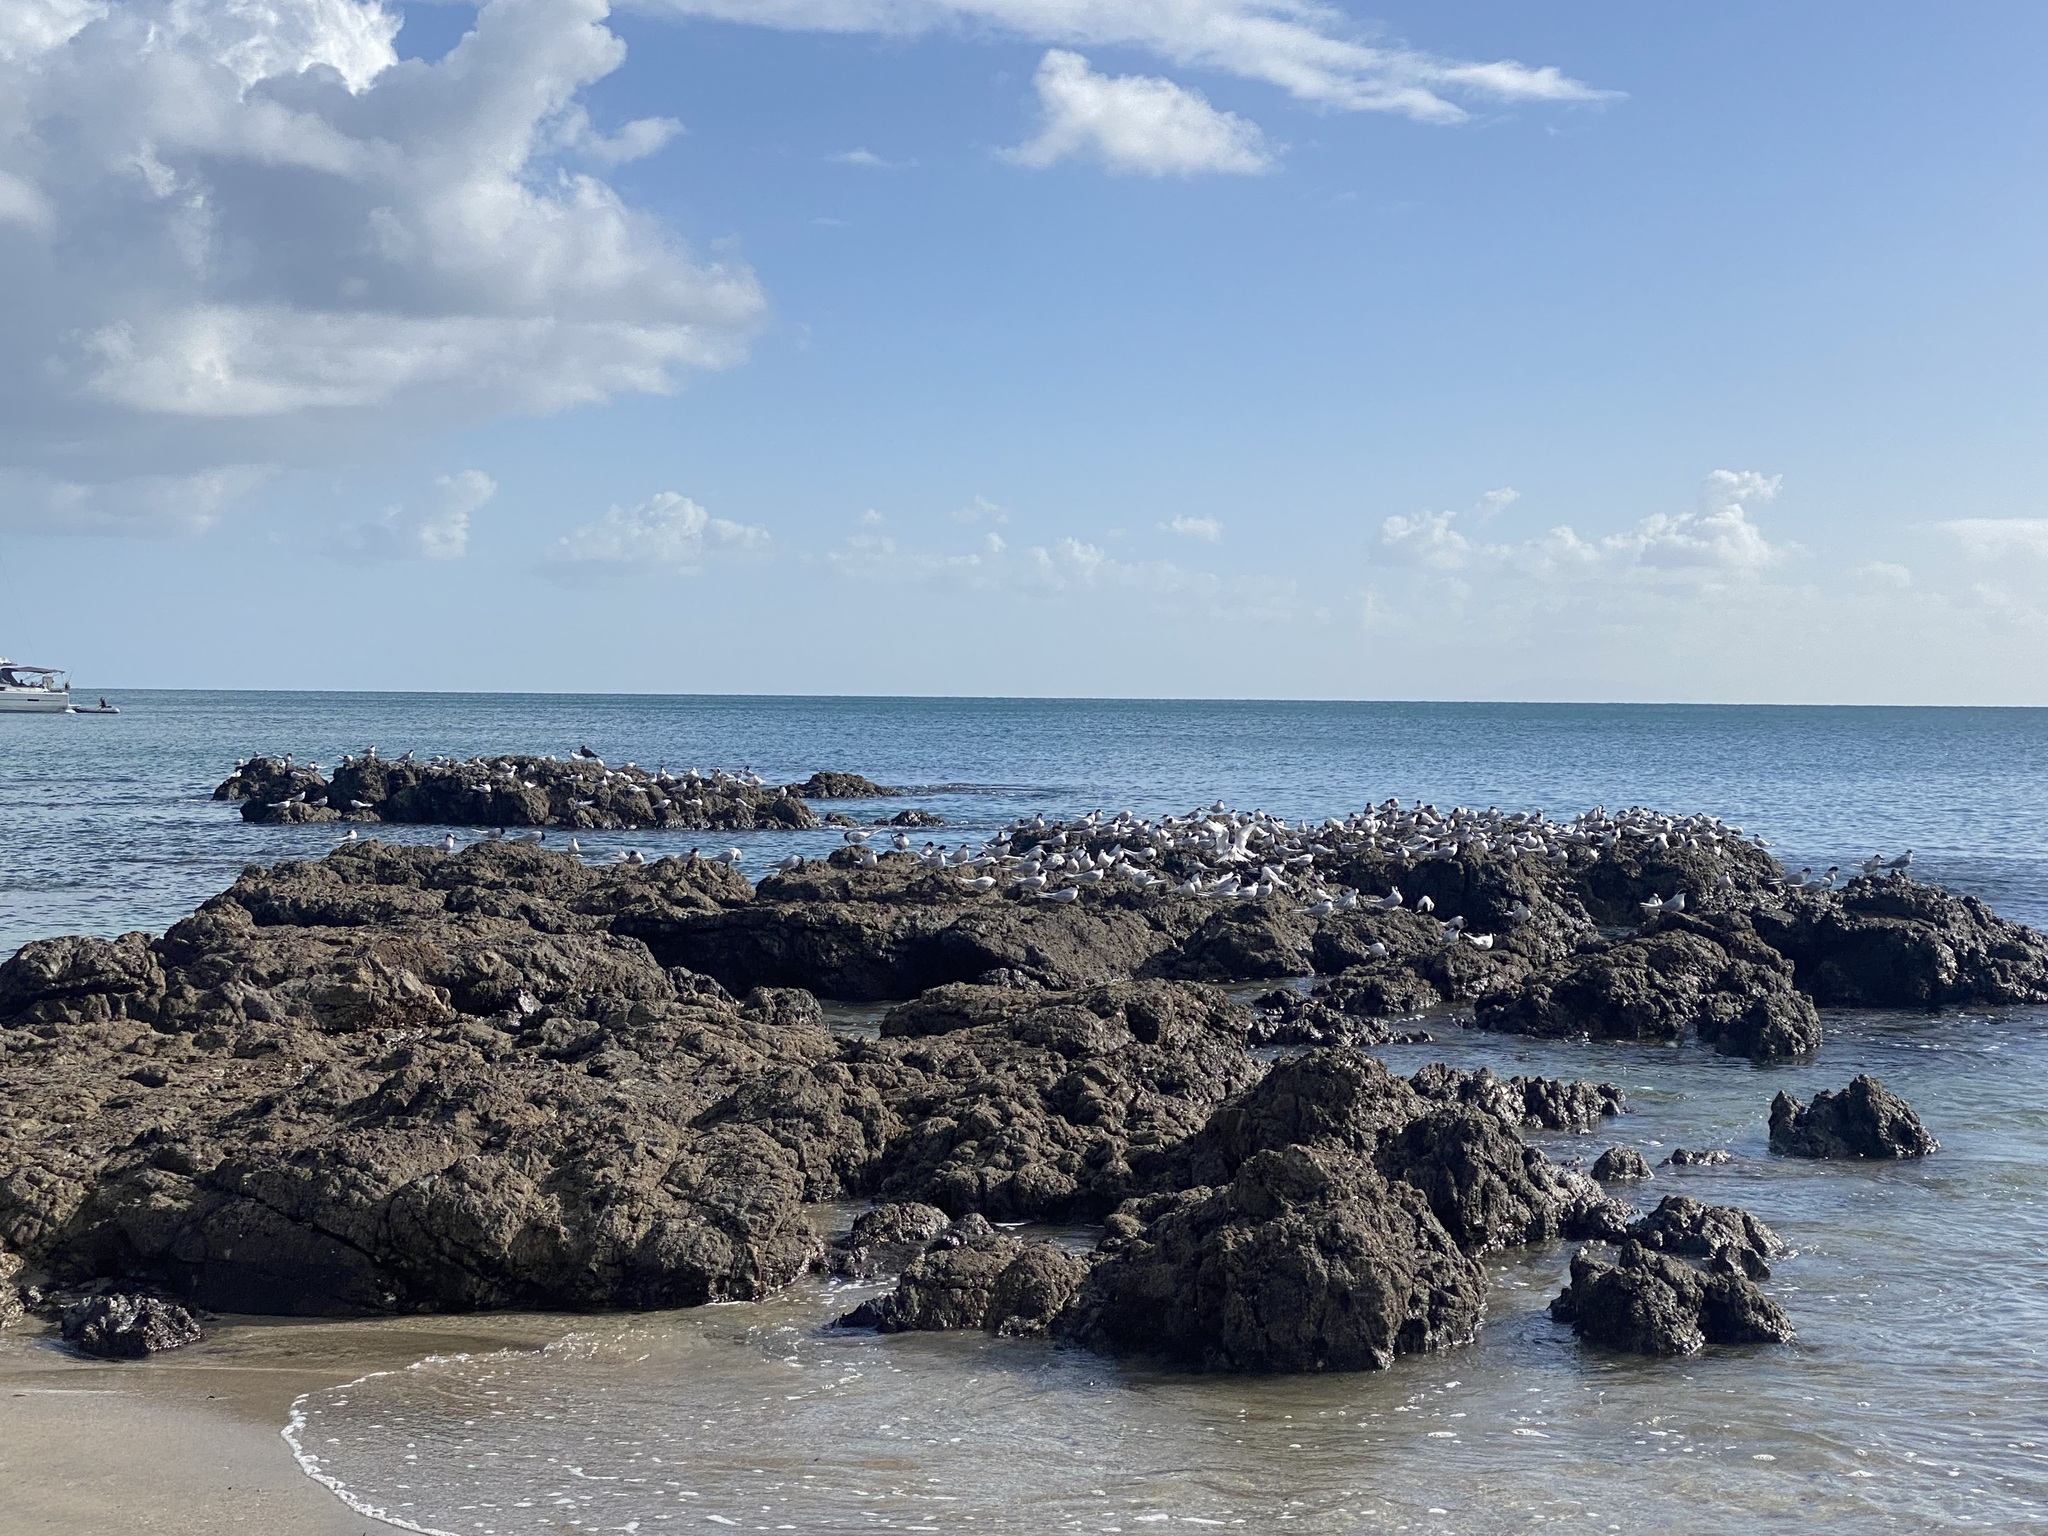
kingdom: Animalia
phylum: Chordata
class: Aves
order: Charadriiformes
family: Laridae
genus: Sterna
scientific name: Sterna striata
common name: White-fronted tern
